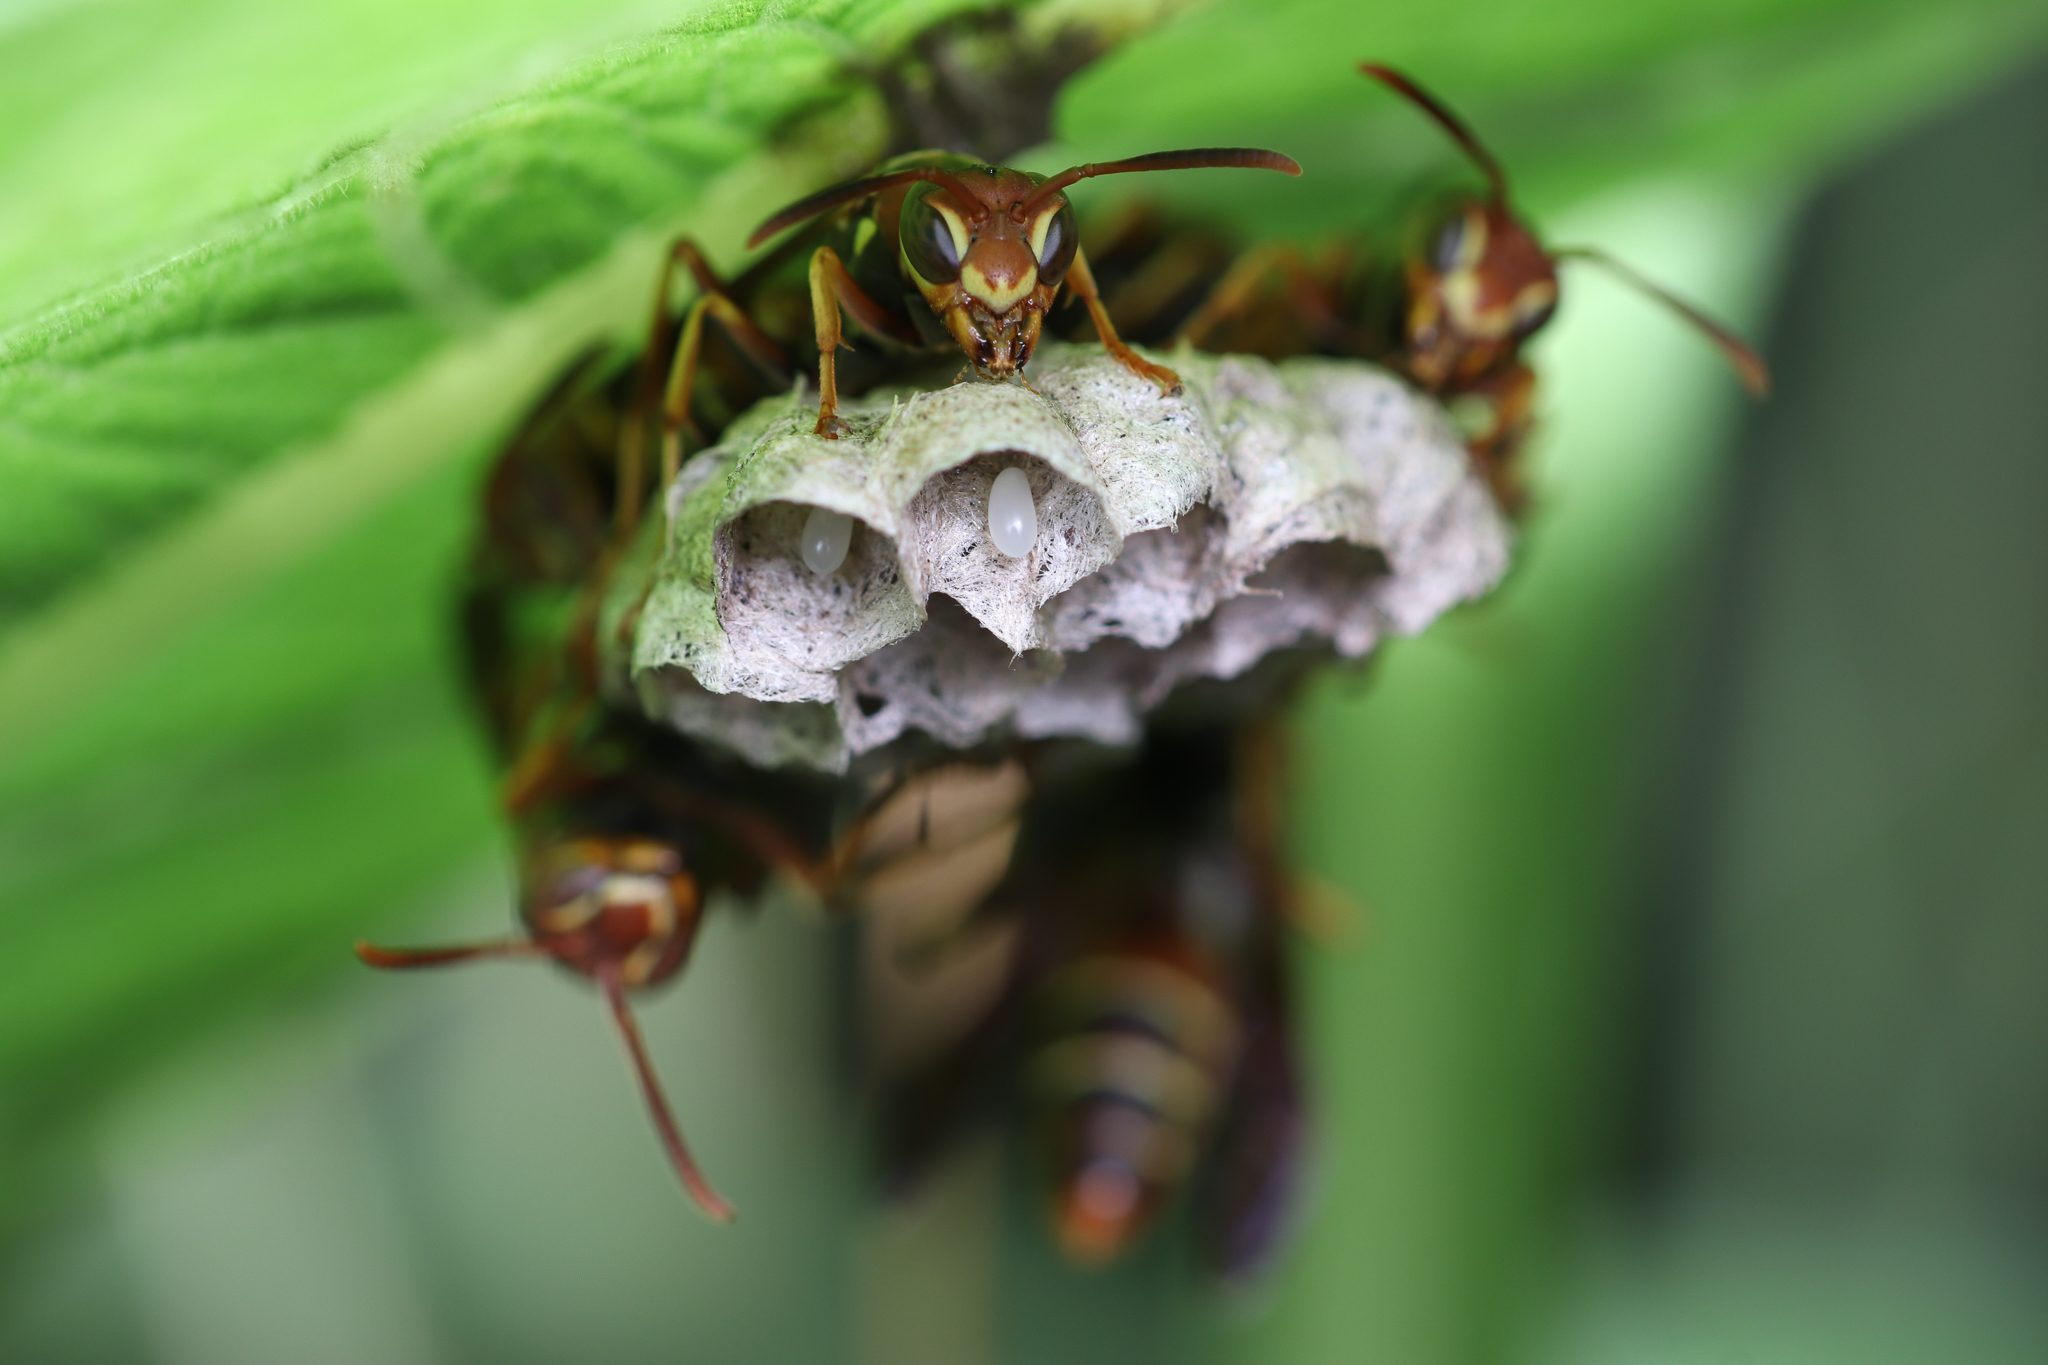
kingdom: Animalia
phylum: Arthropoda
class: Insecta
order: Hymenoptera
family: Eumenidae
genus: Polistes
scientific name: Polistes dorsalis
